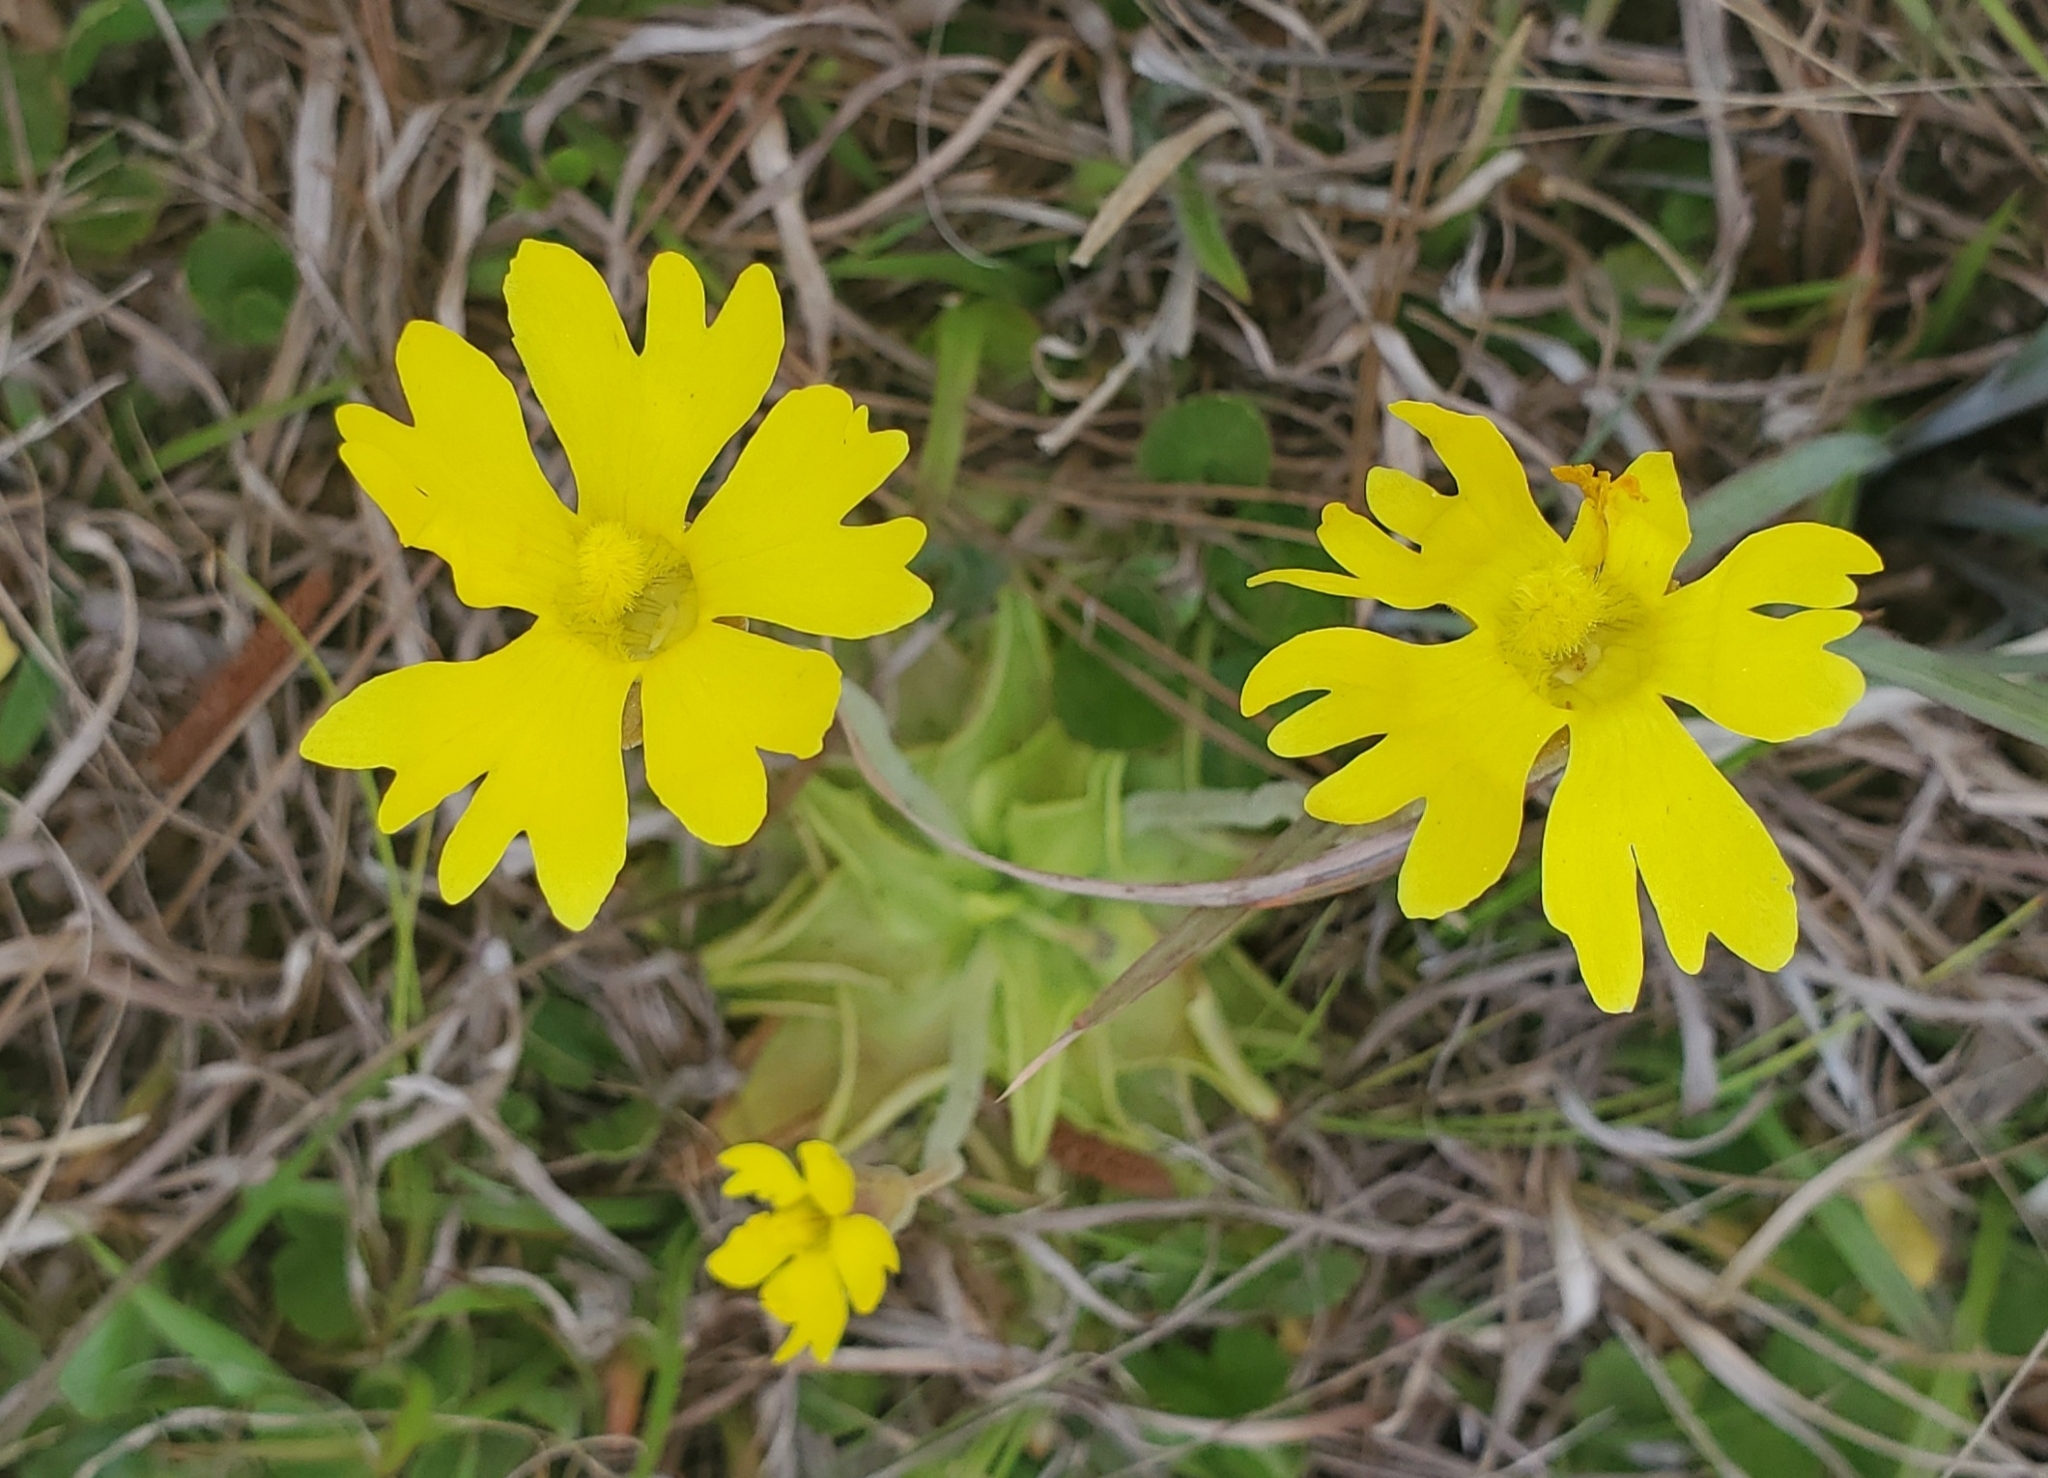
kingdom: Plantae
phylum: Tracheophyta
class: Magnoliopsida
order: Lamiales
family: Lentibulariaceae
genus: Pinguicula
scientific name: Pinguicula lutea
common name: Yellow butterwort
